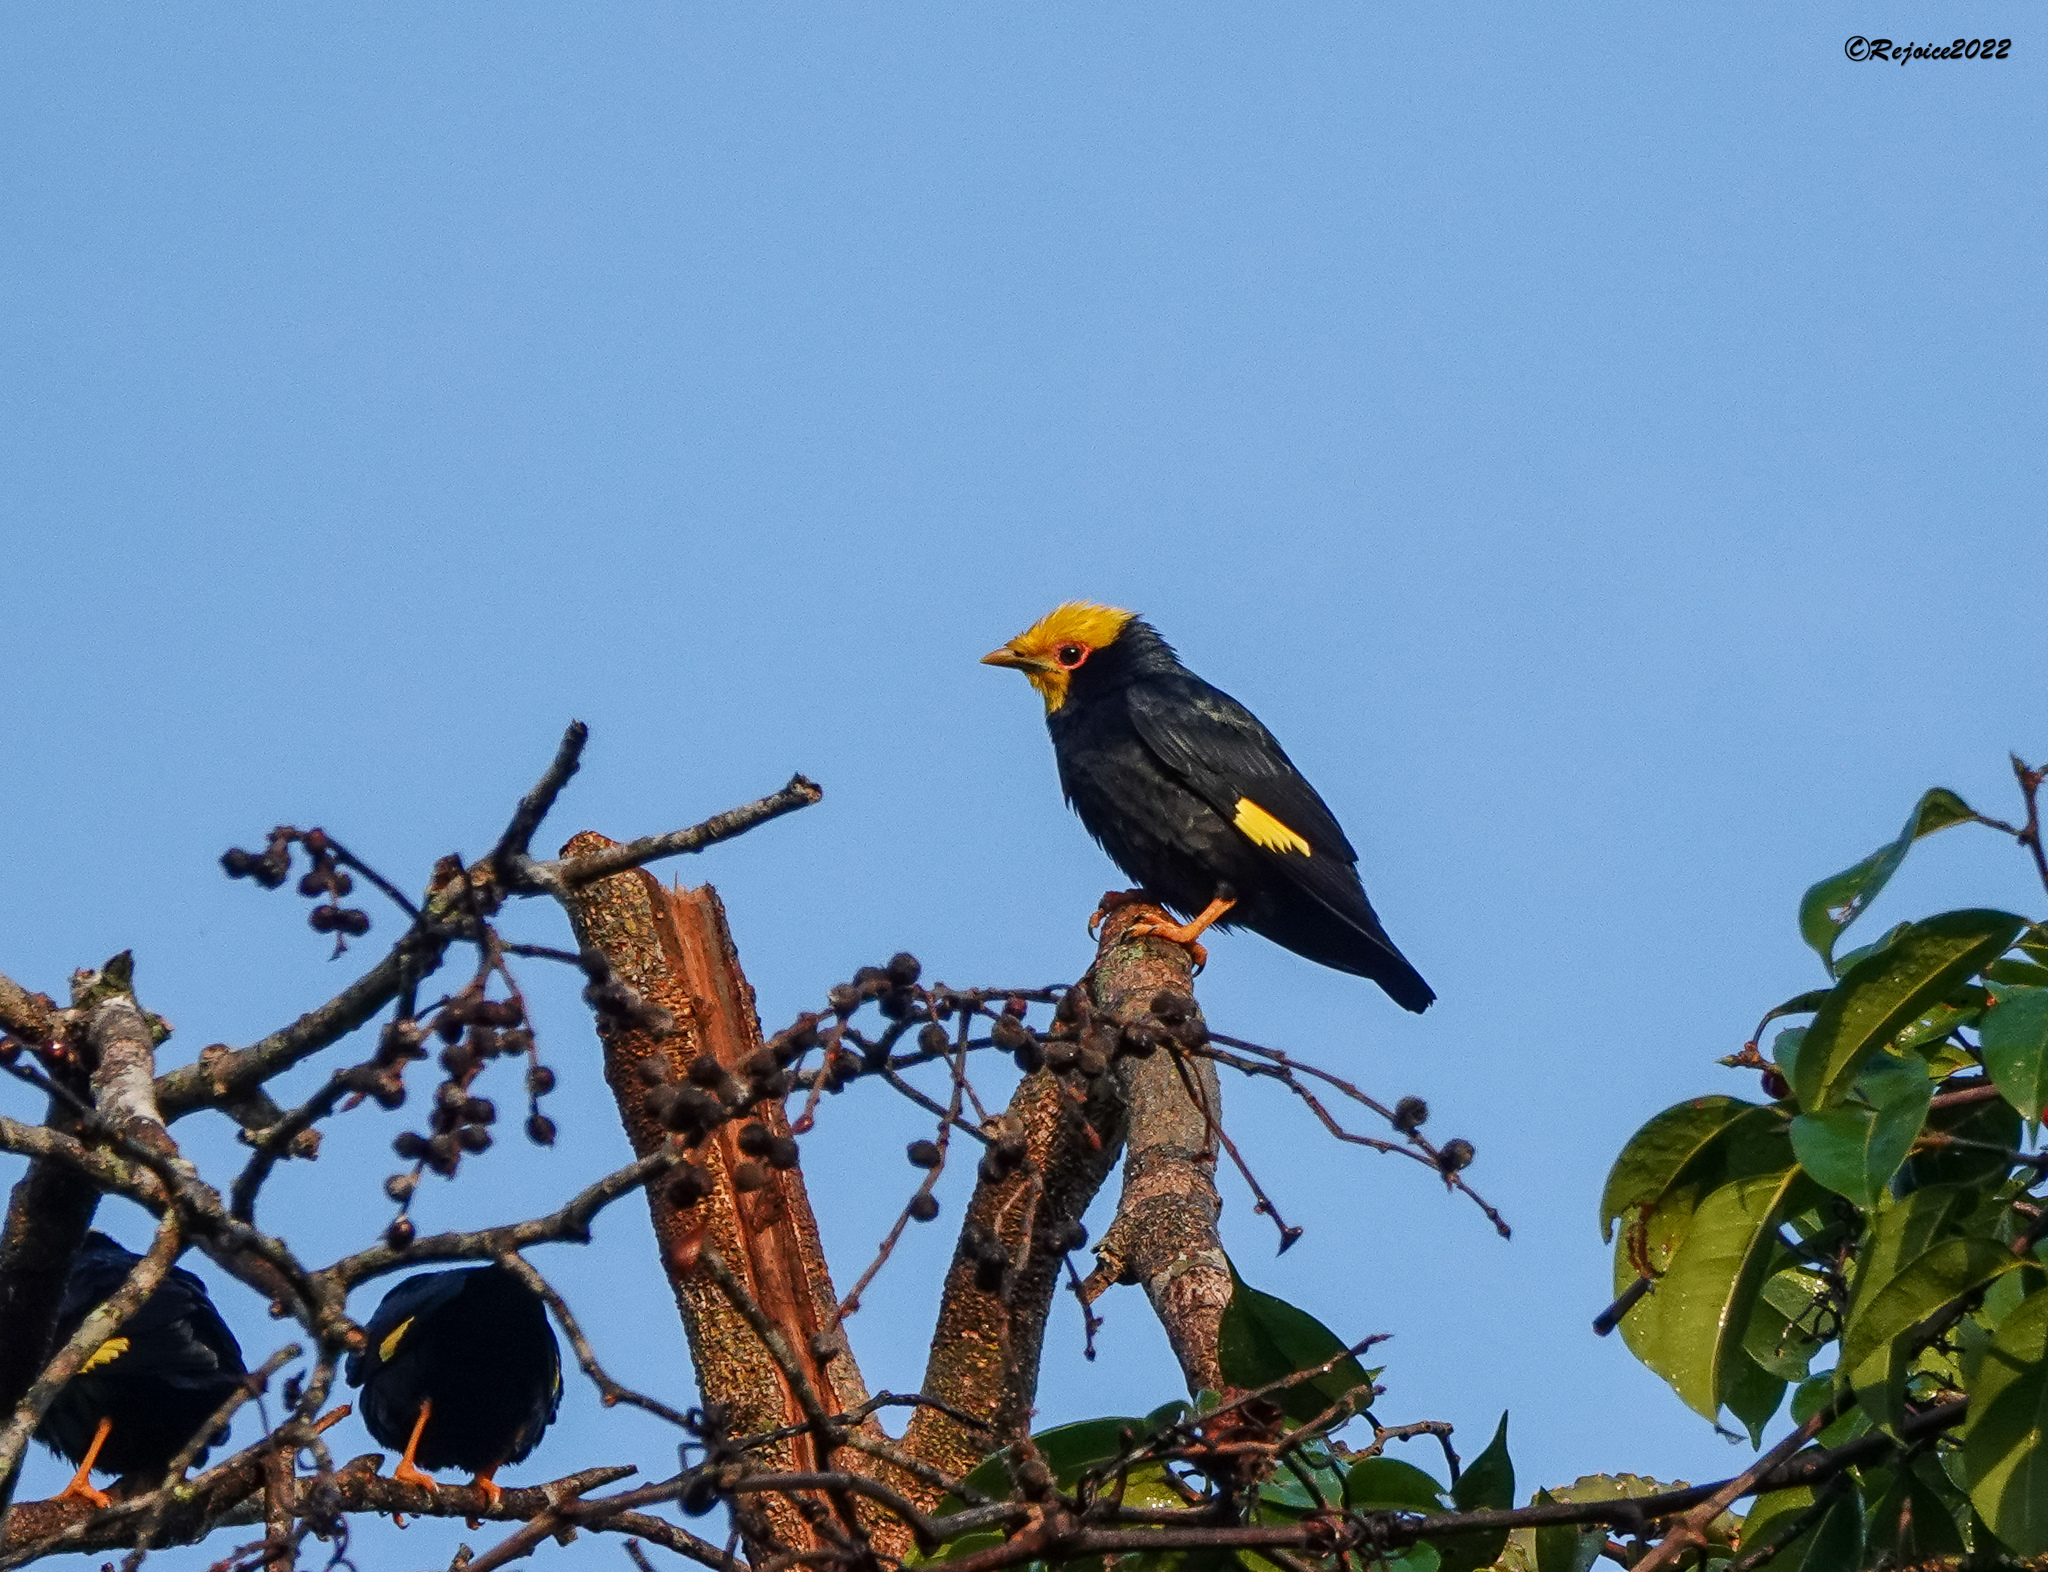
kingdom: Animalia
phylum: Chordata
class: Aves
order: Passeriformes
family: Sturnidae
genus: Ampeliceps
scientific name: Ampeliceps coronatus
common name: Golden-crested myna
